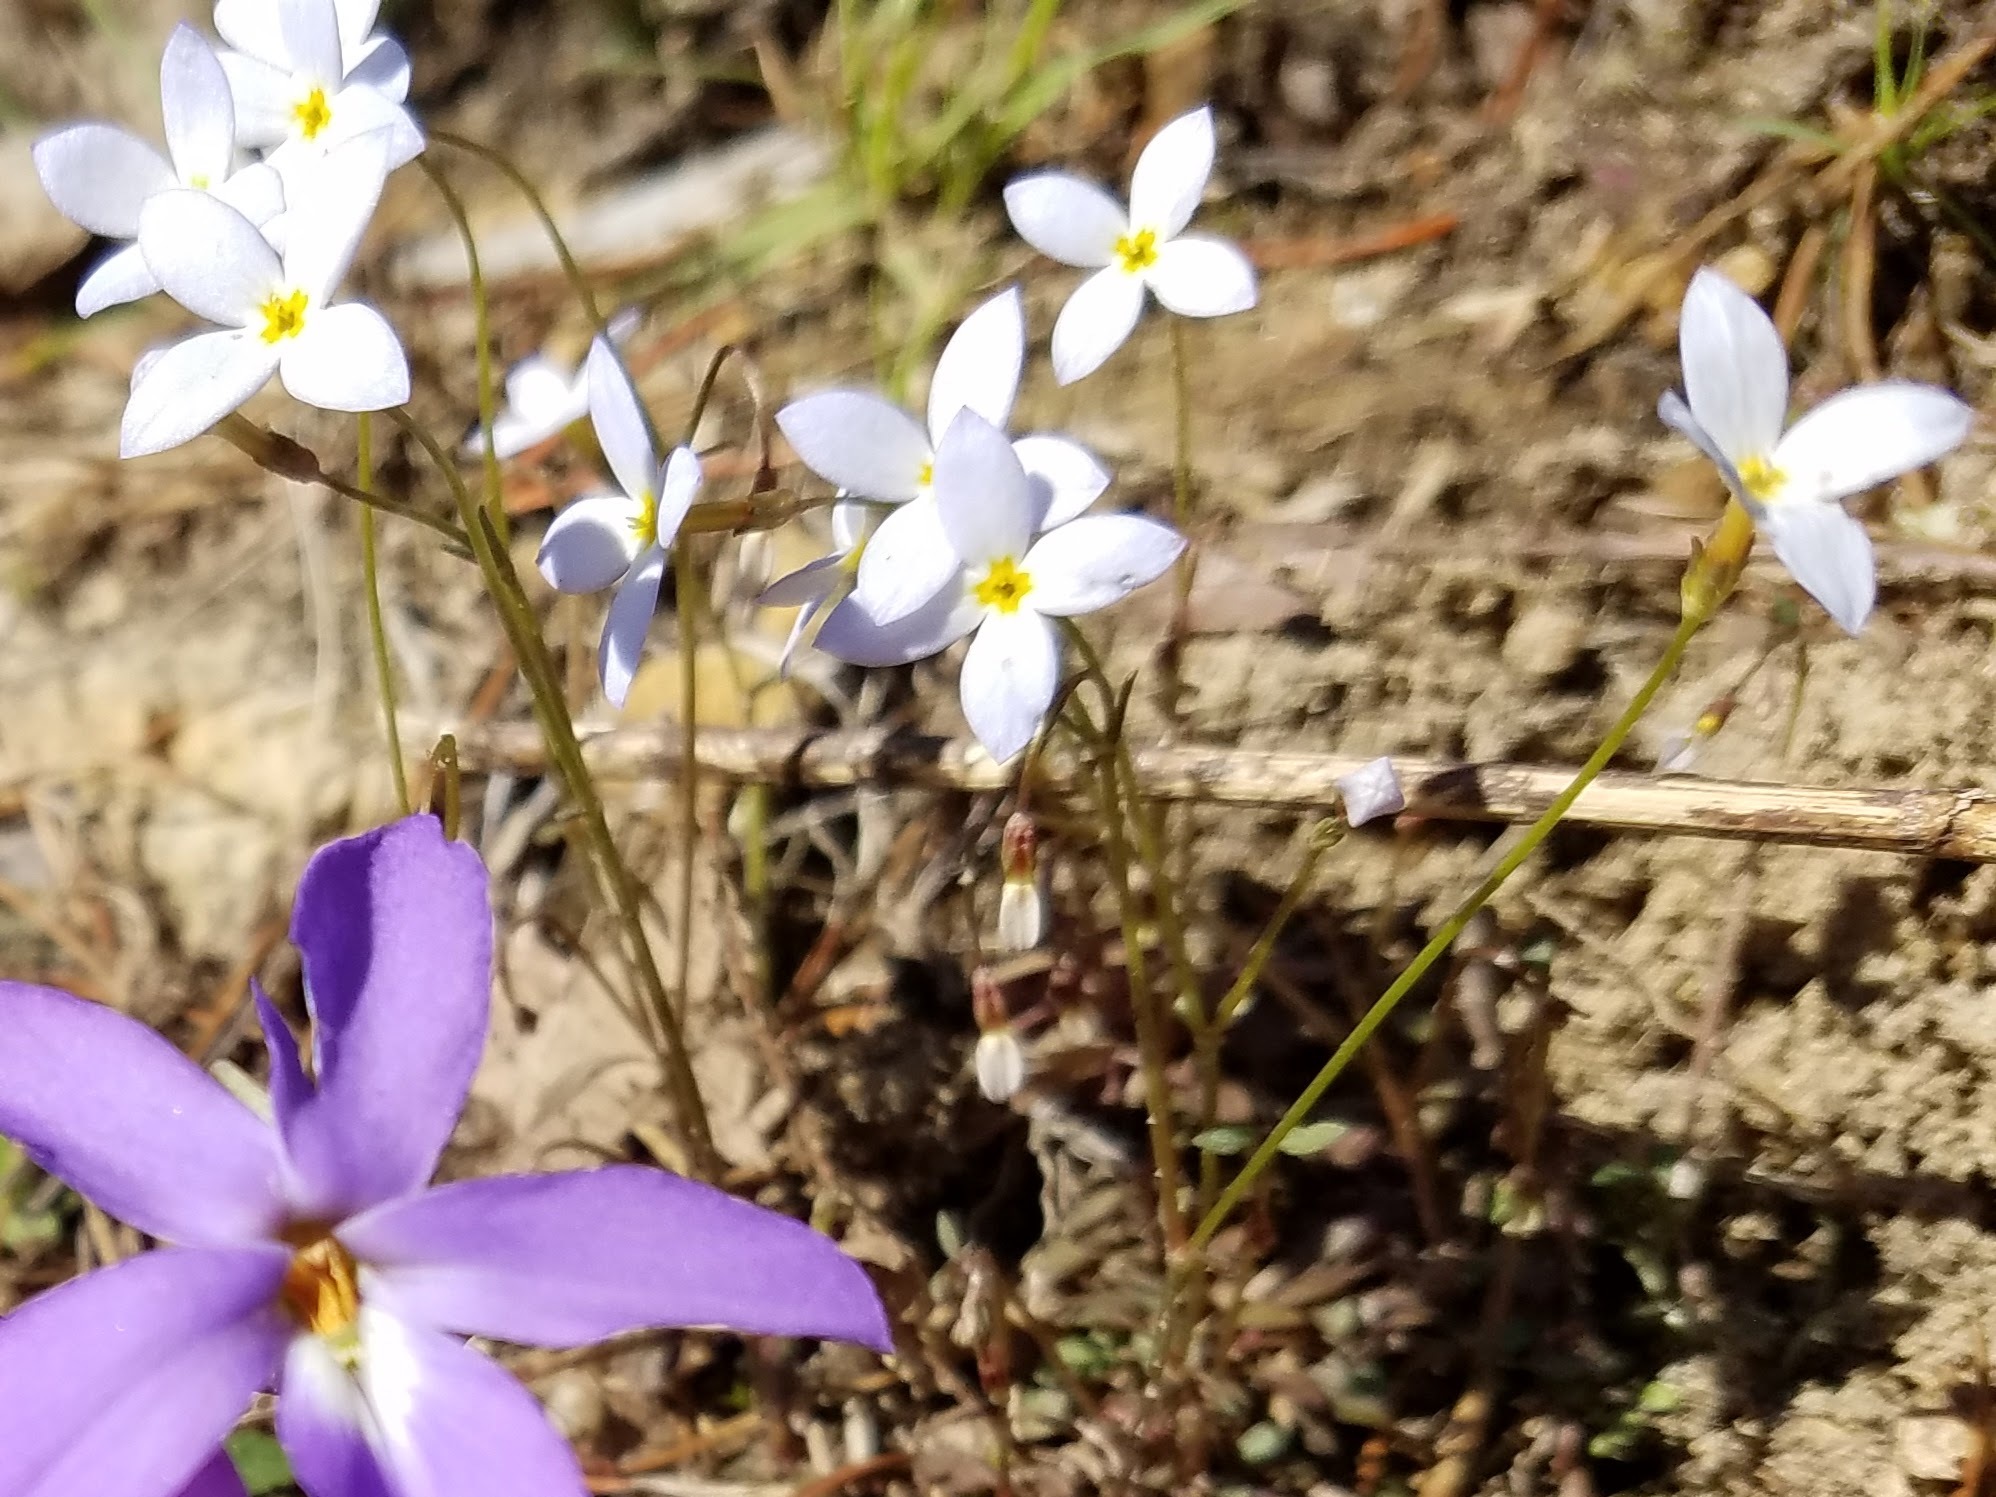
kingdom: Plantae
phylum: Tracheophyta
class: Magnoliopsida
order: Gentianales
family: Rubiaceae
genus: Houstonia
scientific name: Houstonia caerulea
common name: Bluets
